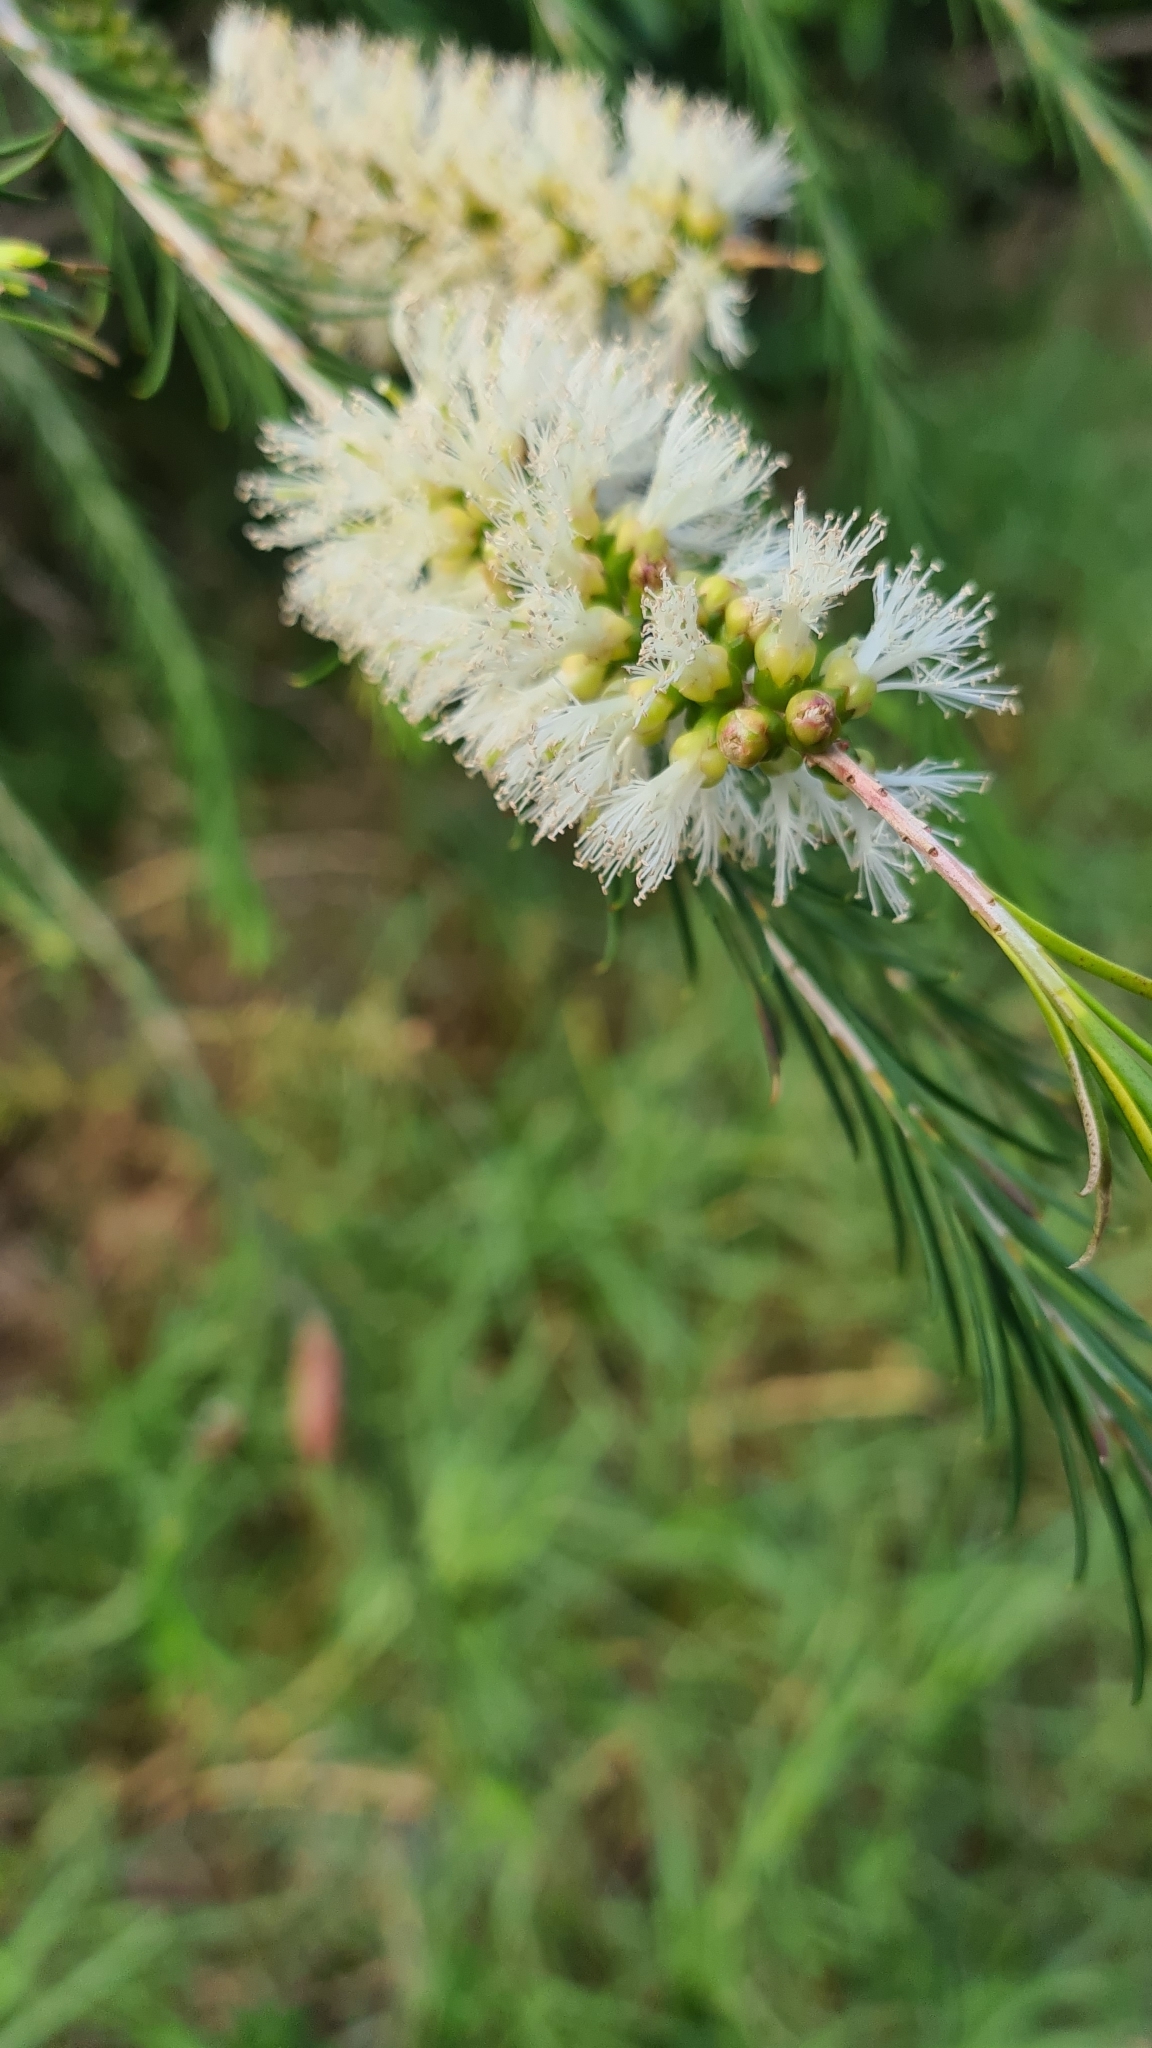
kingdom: Plantae
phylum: Tracheophyta
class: Magnoliopsida
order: Myrtales
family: Myrtaceae
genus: Melaleuca
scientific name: Melaleuca armillaris
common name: Bracelet honey myrtle
